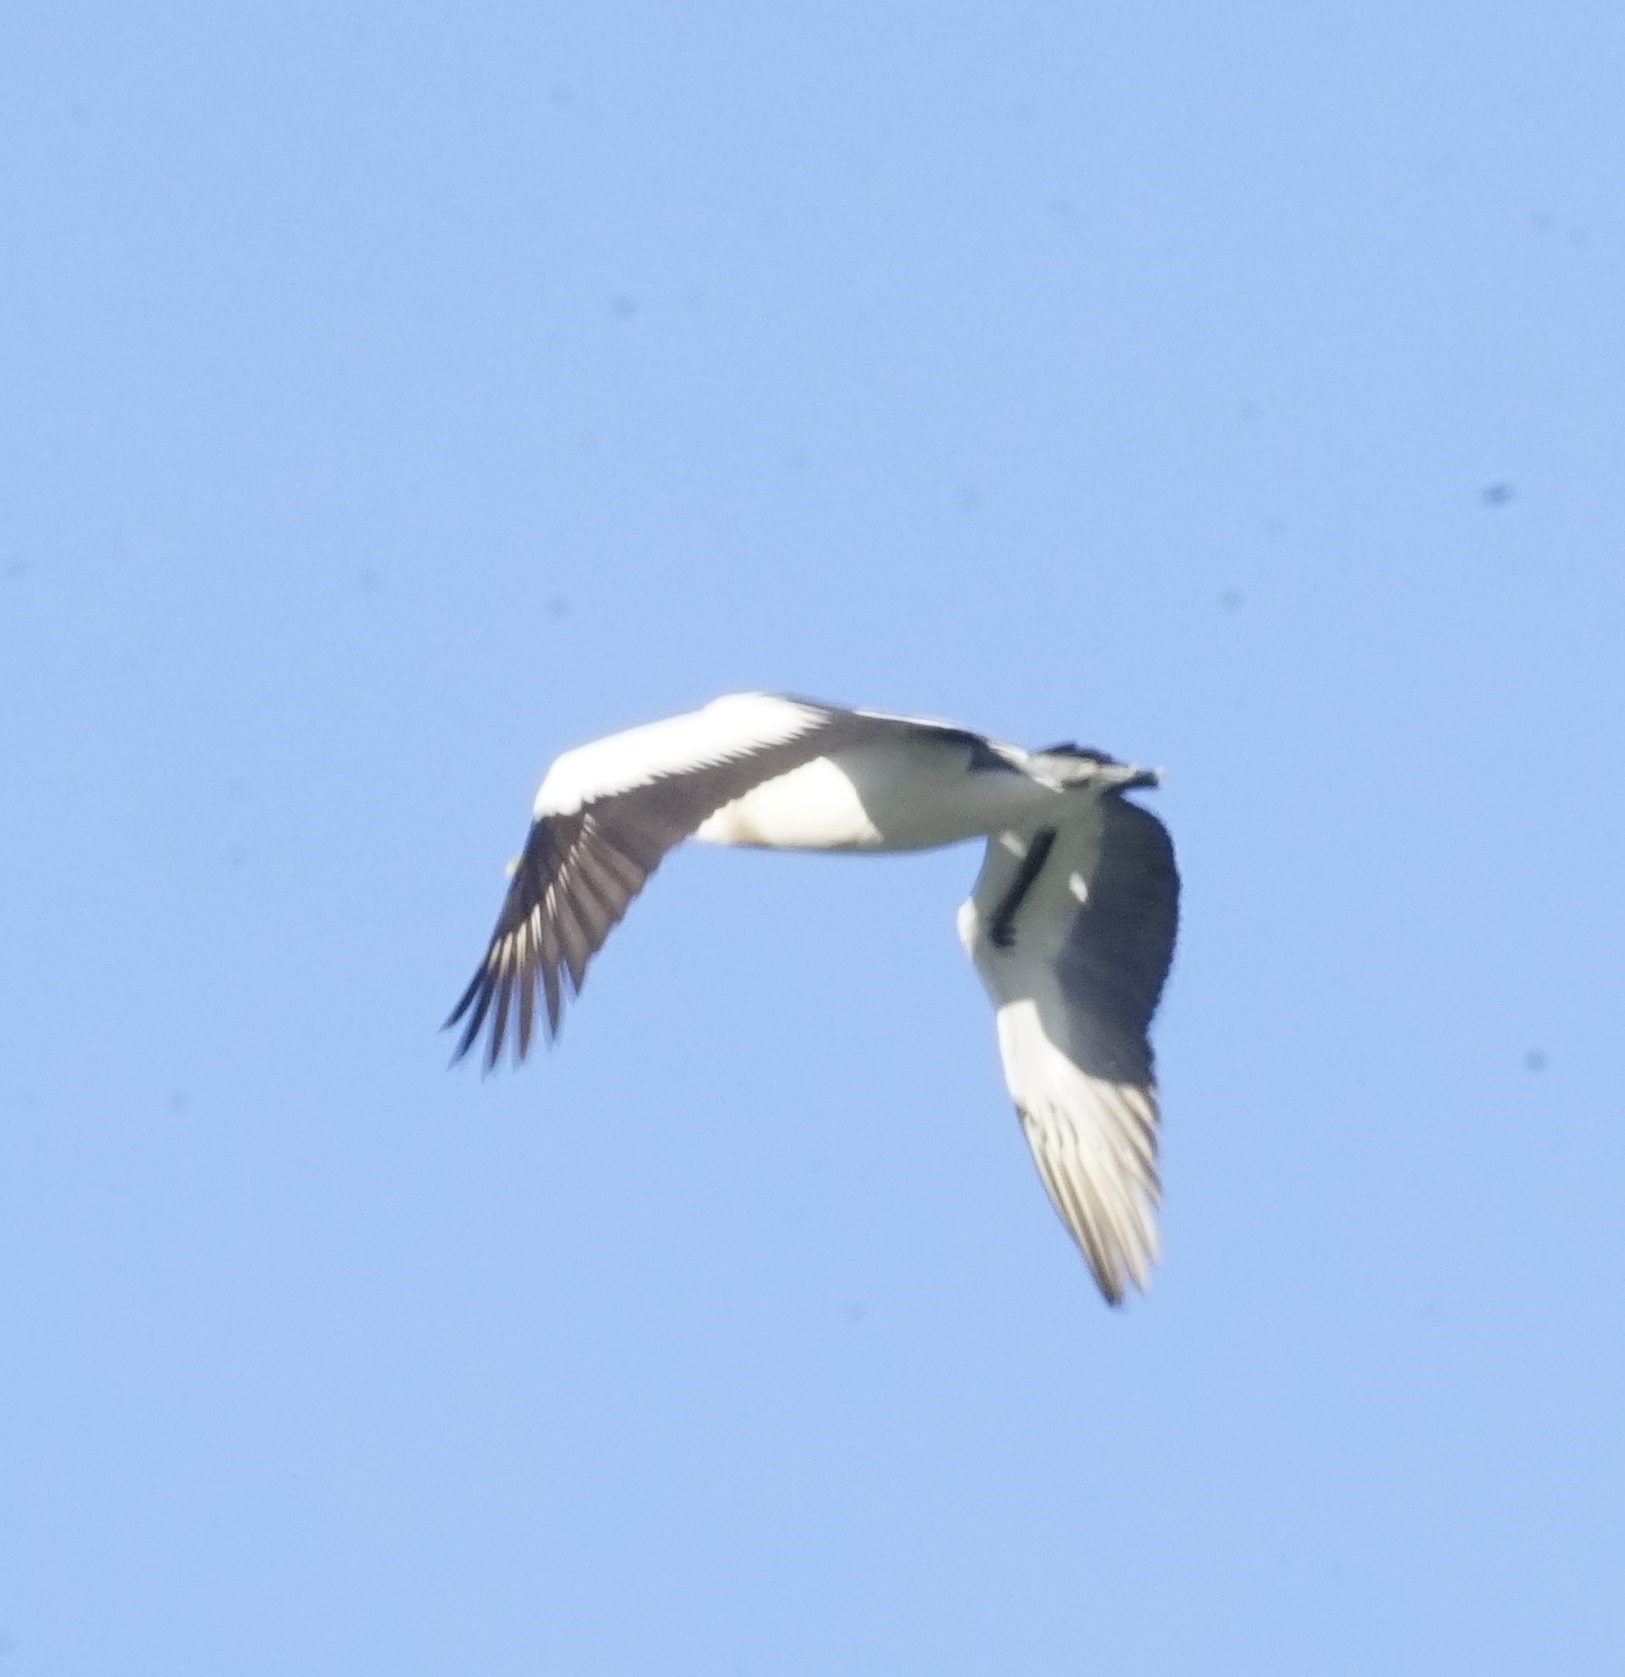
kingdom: Animalia
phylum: Chordata
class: Aves
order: Suliformes
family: Sulidae
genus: Morus
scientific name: Morus serrator
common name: Australasian gannet
